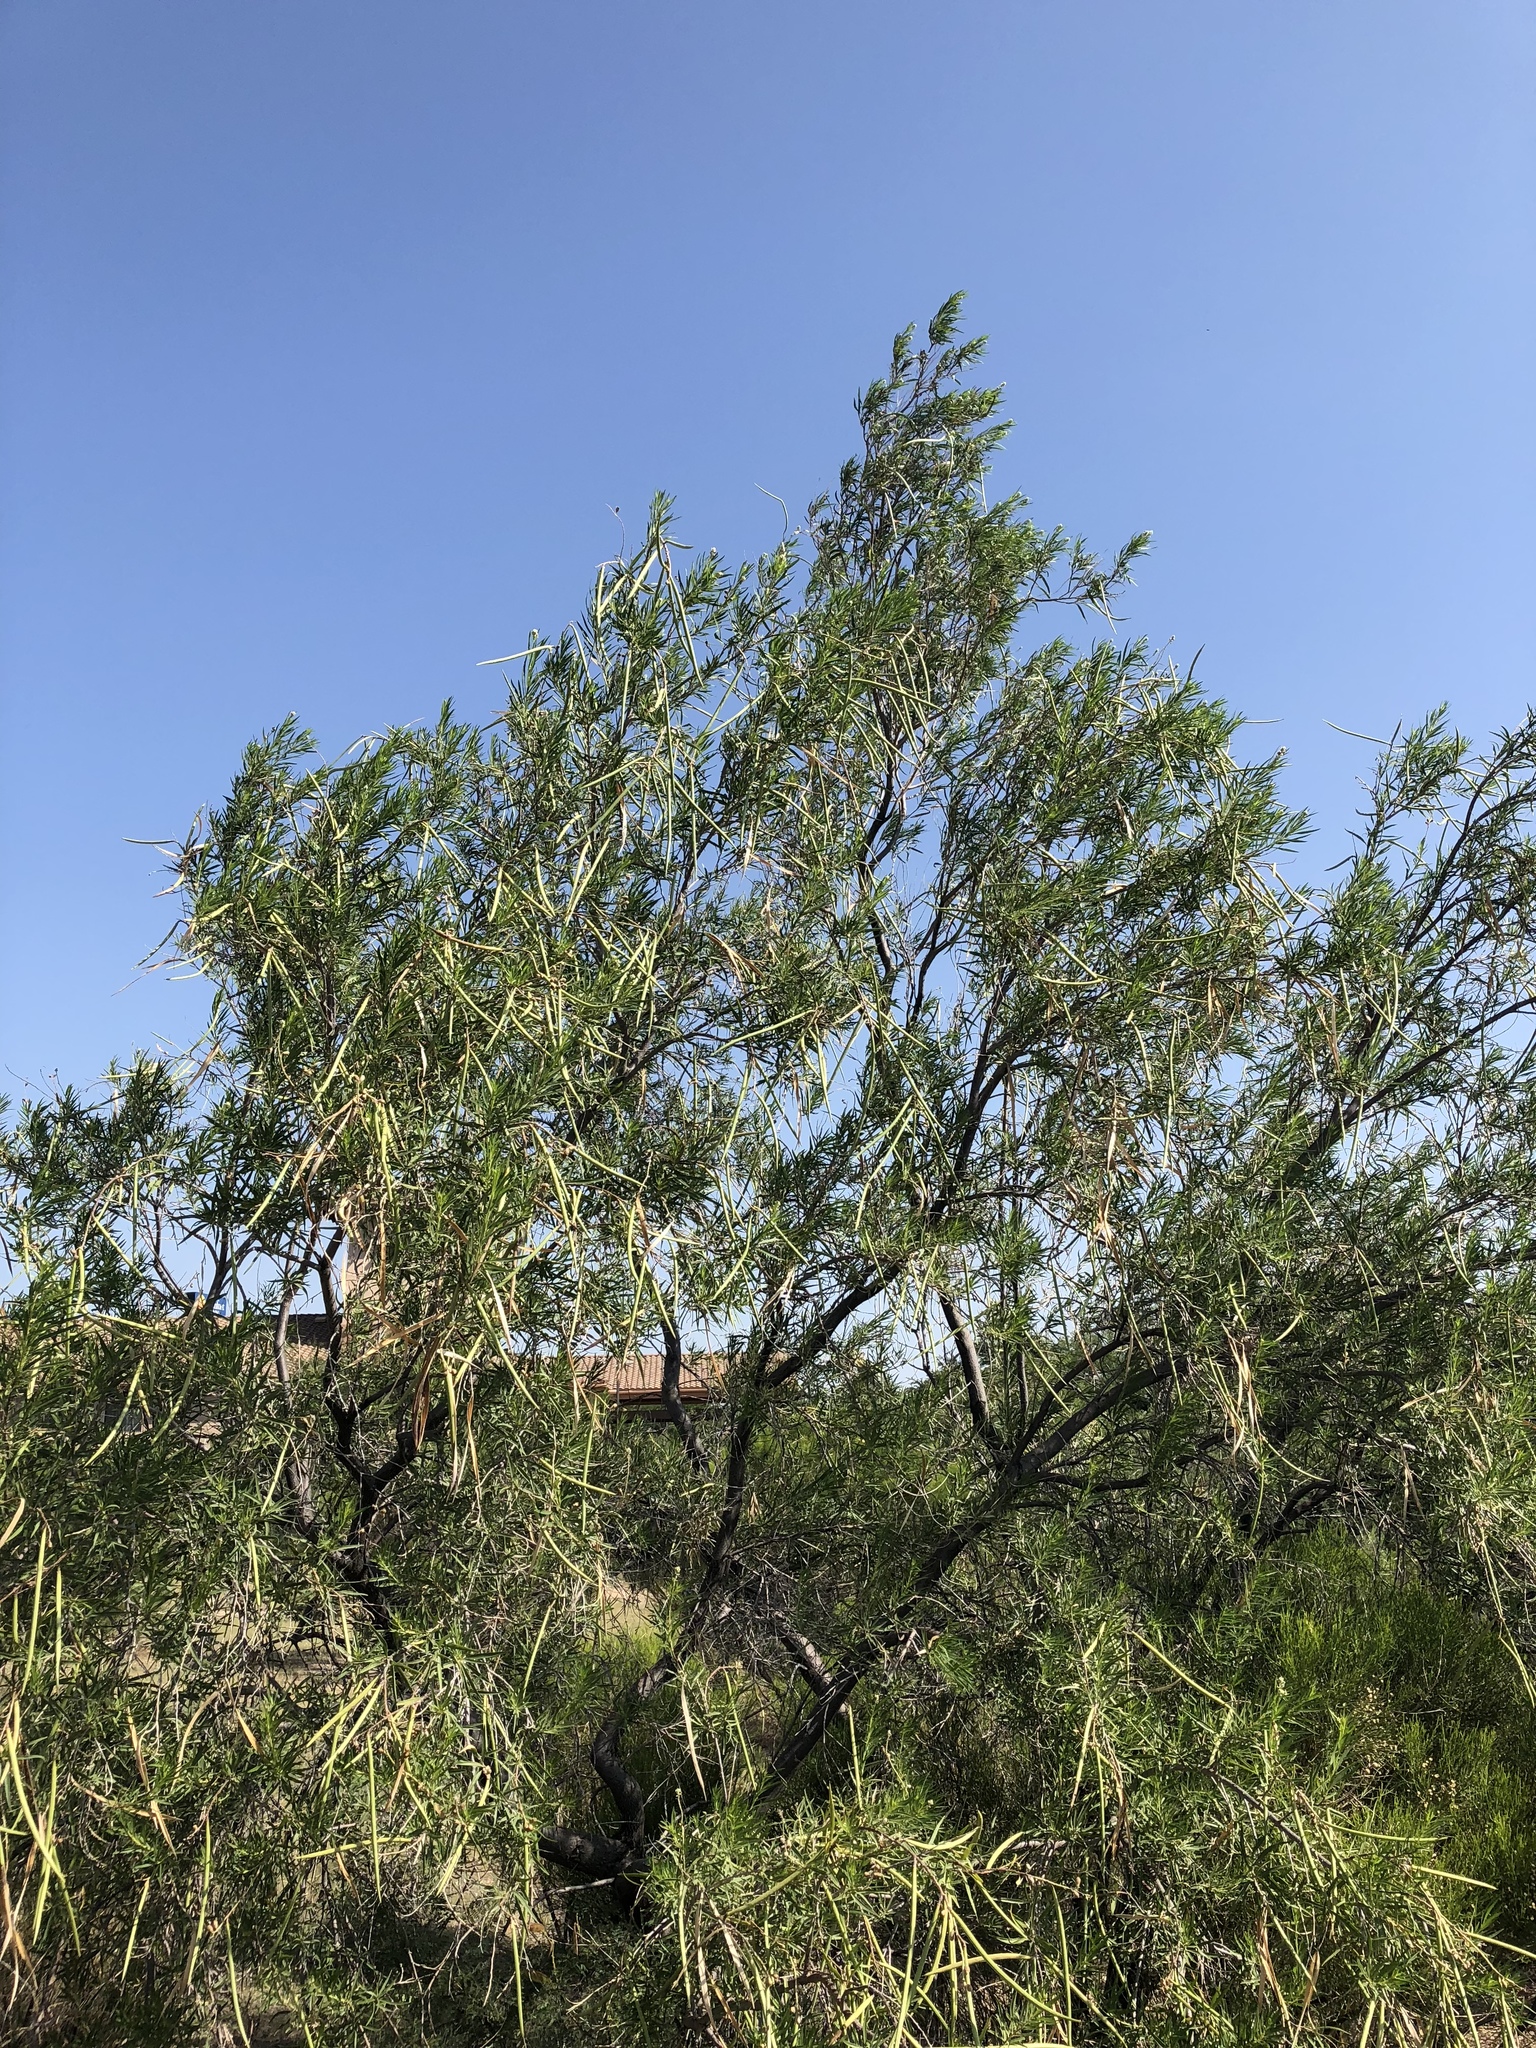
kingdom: Plantae
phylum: Tracheophyta
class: Magnoliopsida
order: Lamiales
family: Bignoniaceae
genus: Chilopsis
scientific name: Chilopsis linearis
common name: Desert-willow
